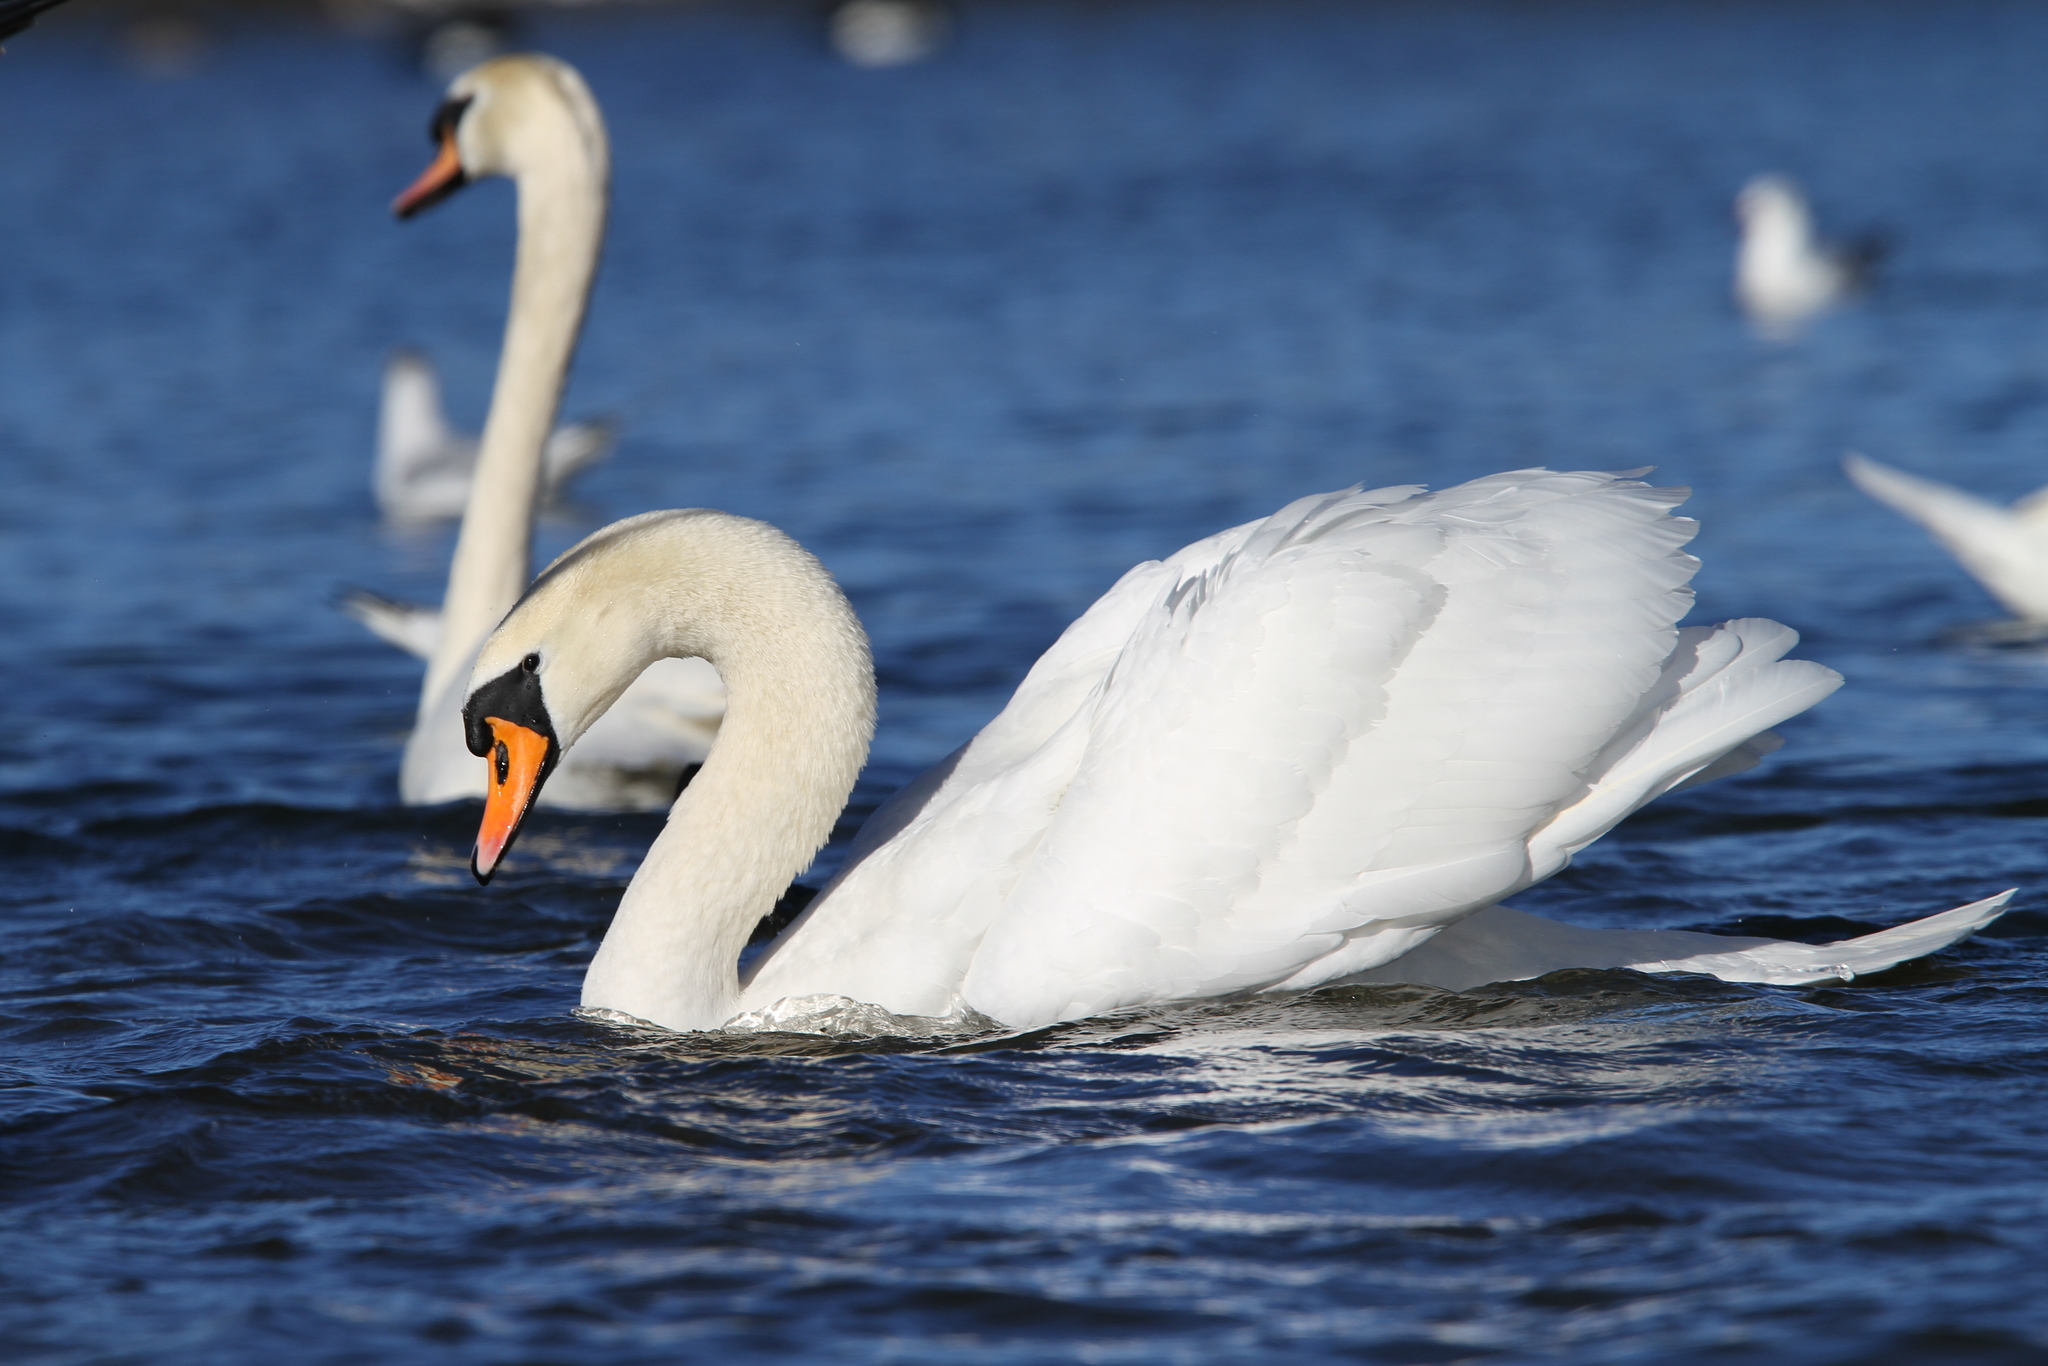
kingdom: Animalia
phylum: Chordata
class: Aves
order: Anseriformes
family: Anatidae
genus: Cygnus
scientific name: Cygnus olor
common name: Mute swan
